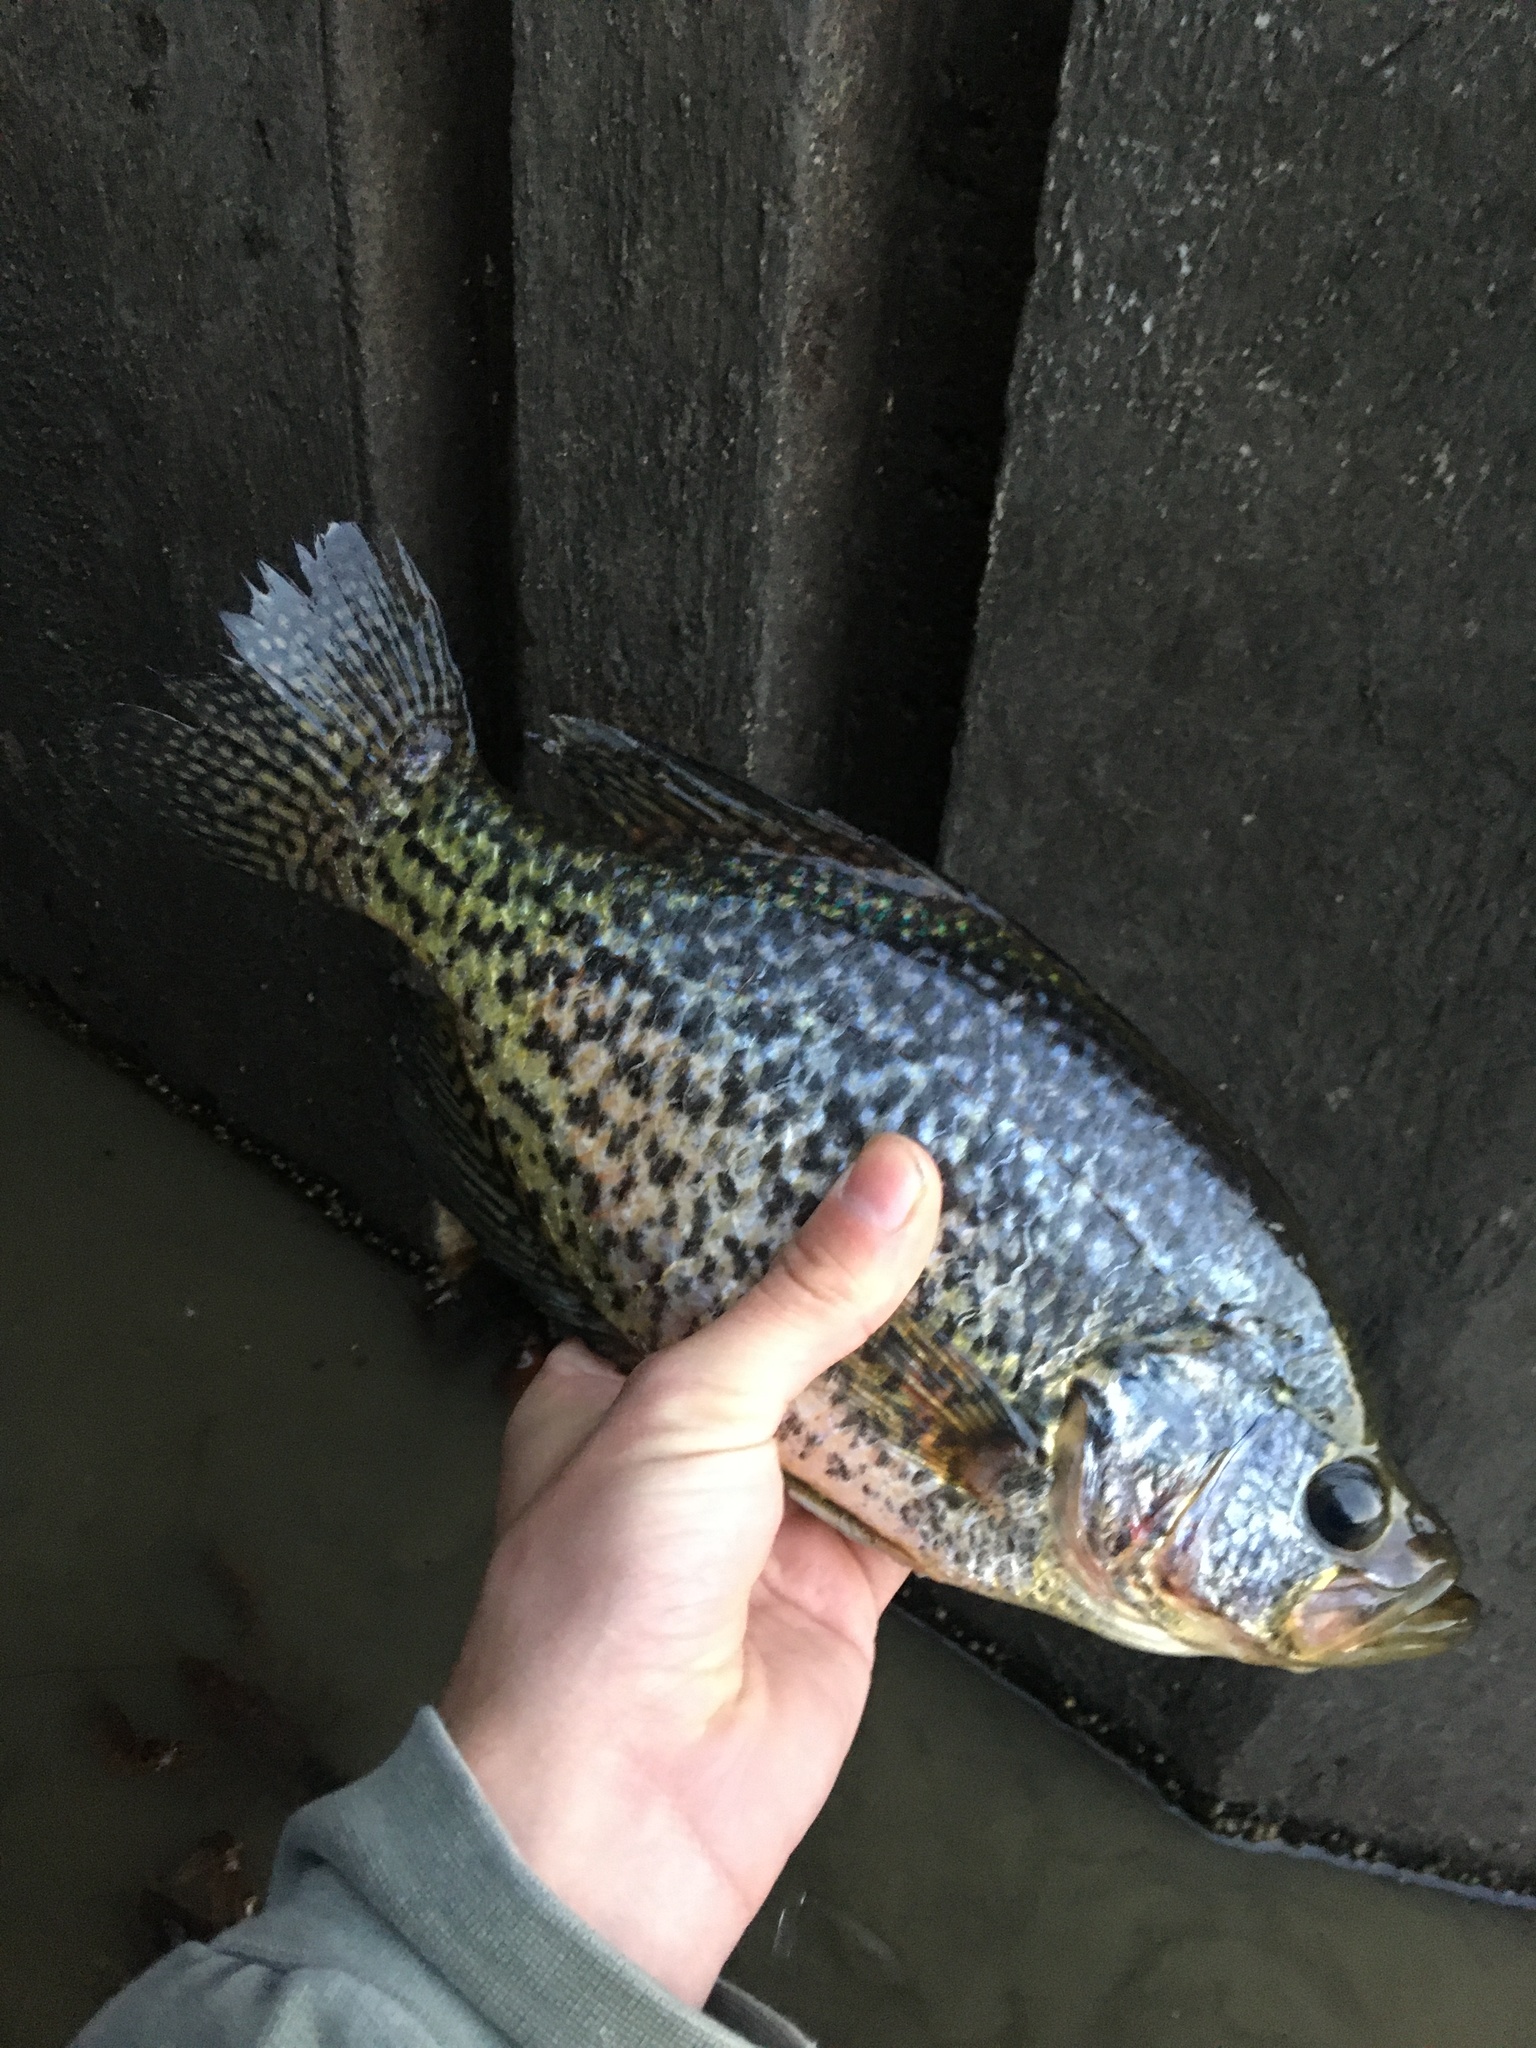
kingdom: Animalia
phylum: Chordata
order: Perciformes
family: Centrarchidae
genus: Pomoxis
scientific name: Pomoxis nigromaculatus
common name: Black crappie
